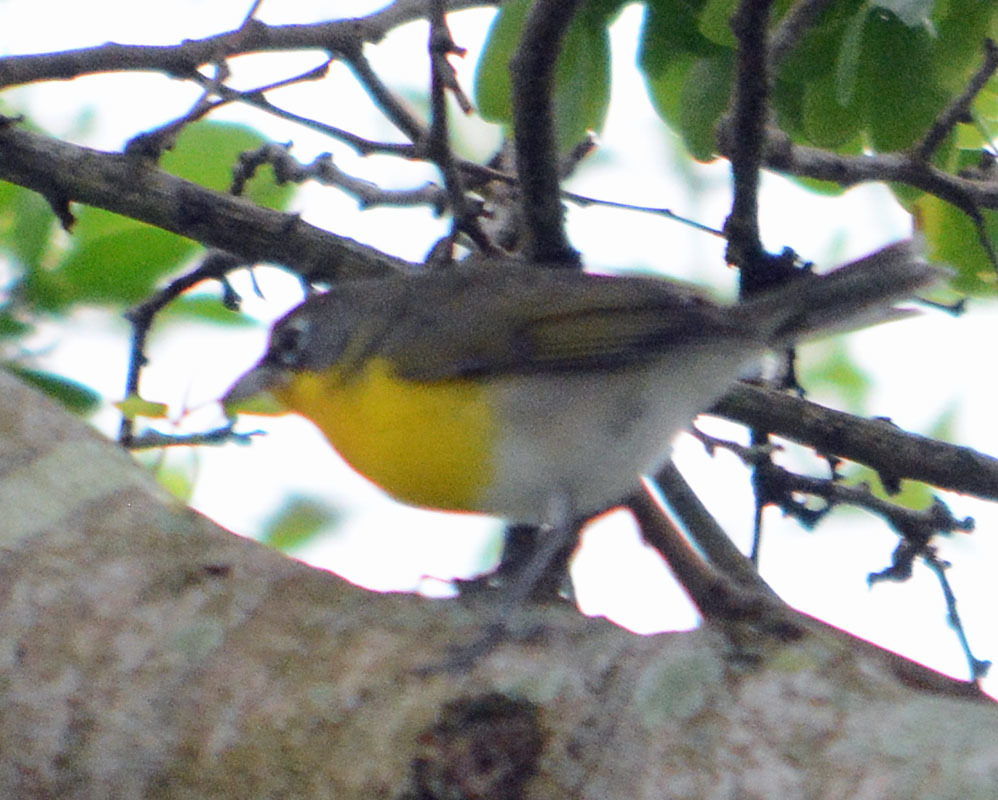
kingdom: Animalia
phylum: Chordata
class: Aves
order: Passeriformes
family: Parulidae
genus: Icteria
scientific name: Icteria virens
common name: Yellow-breasted chat
